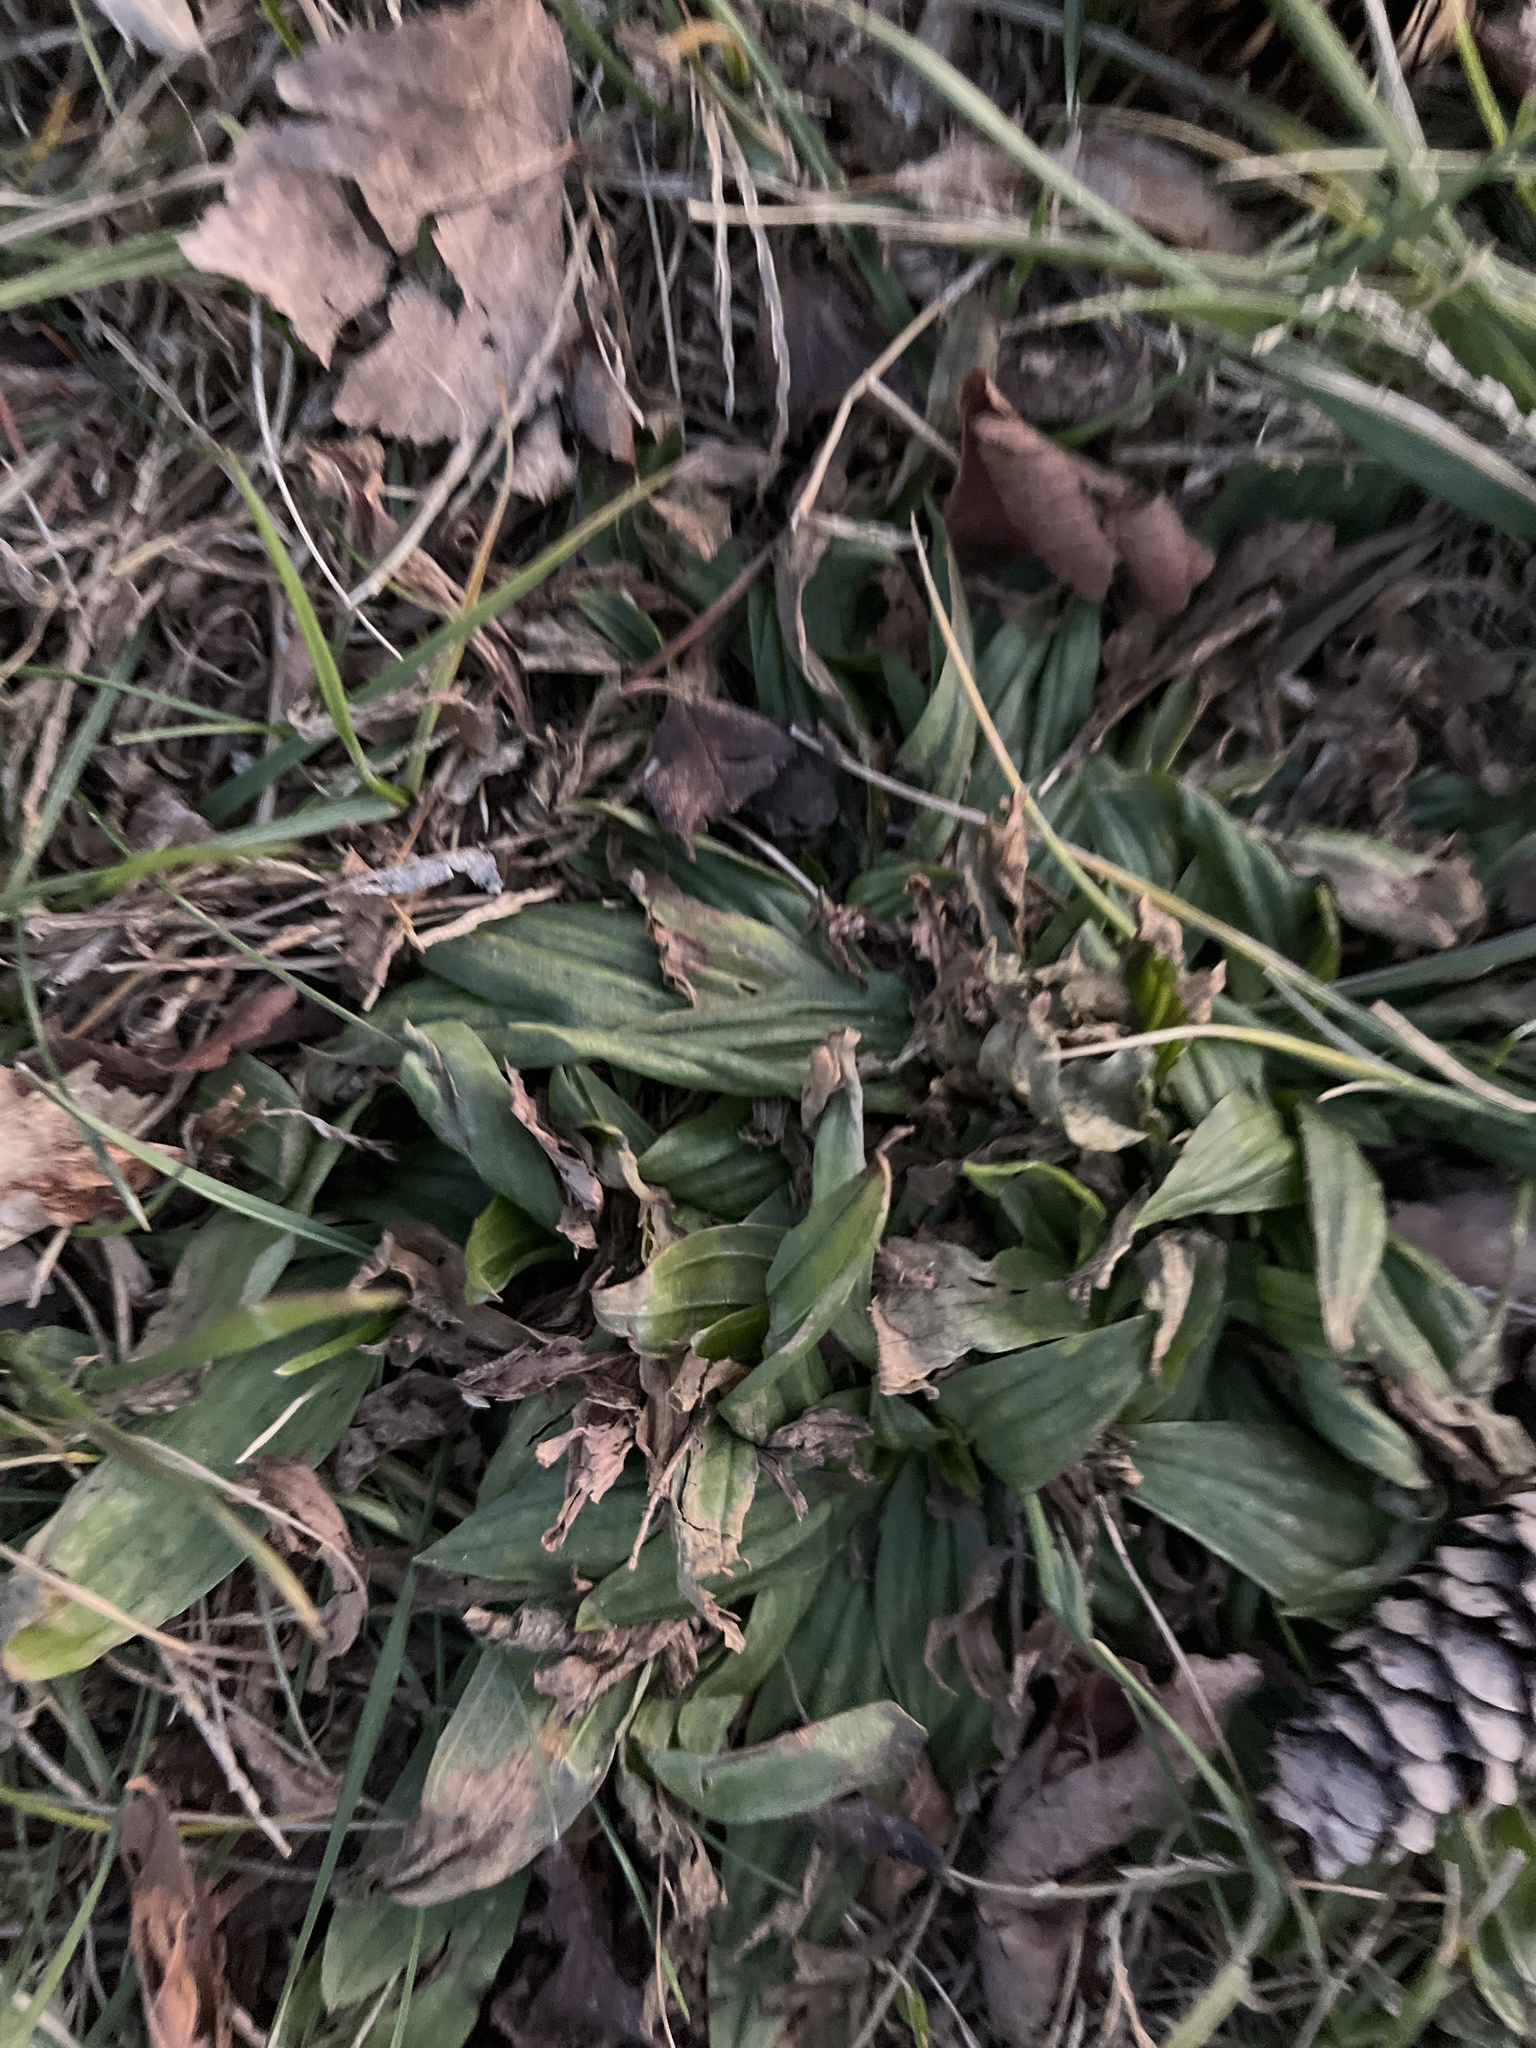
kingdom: Plantae
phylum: Tracheophyta
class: Magnoliopsida
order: Lamiales
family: Plantaginaceae
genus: Plantago
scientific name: Plantago lanceolata
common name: Ribwort plantain
